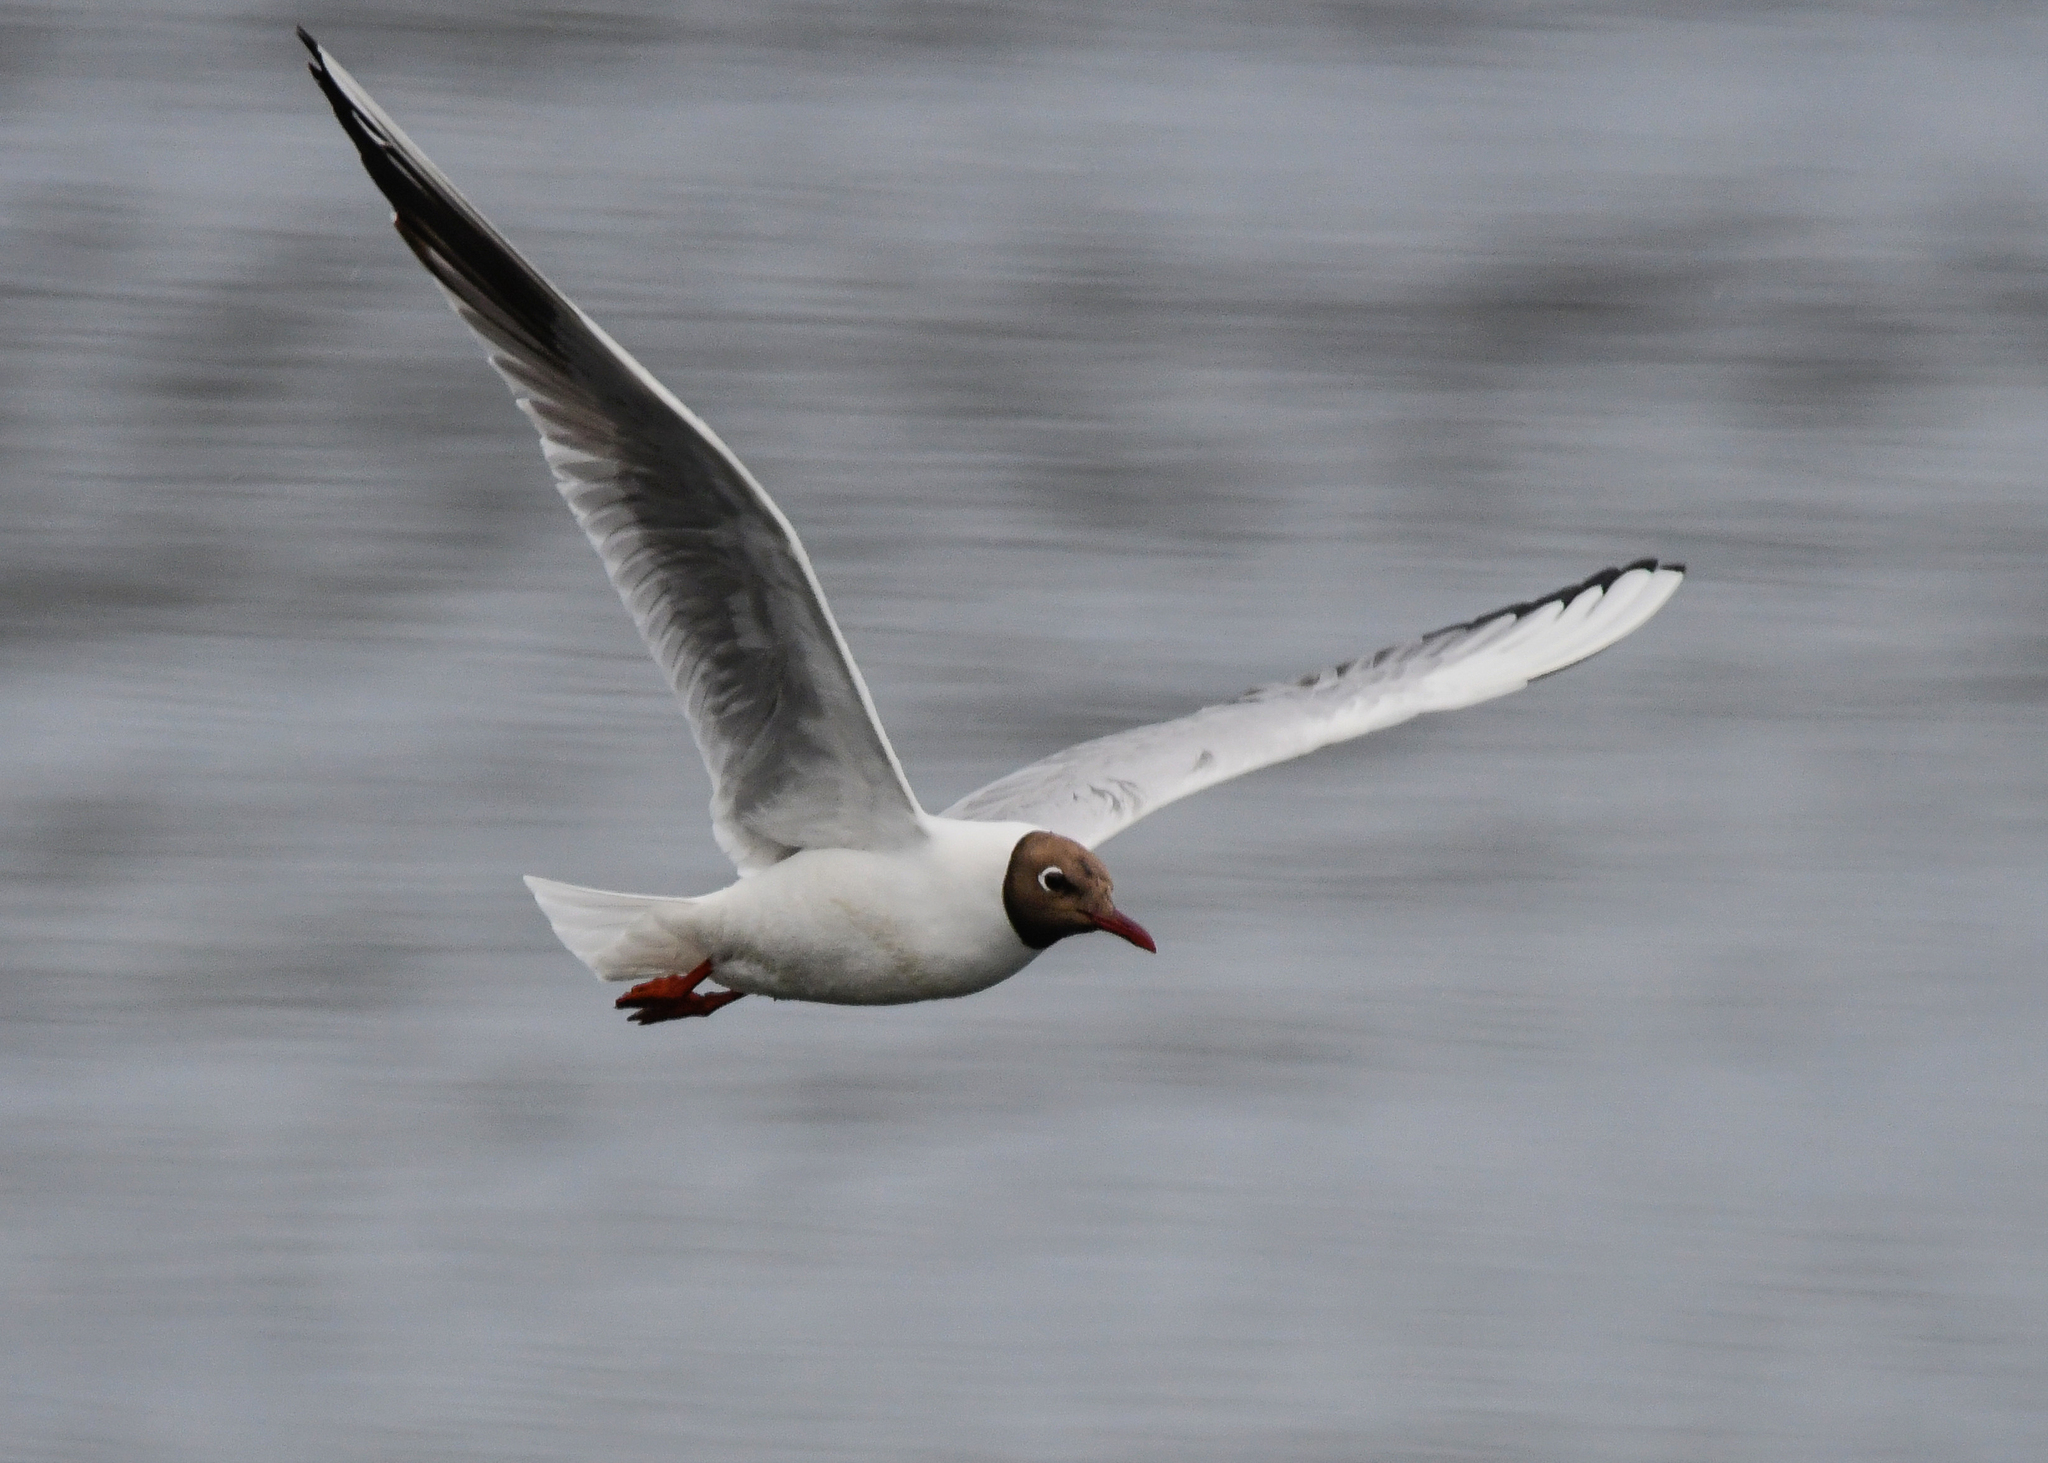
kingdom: Animalia
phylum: Chordata
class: Aves
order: Charadriiformes
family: Laridae
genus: Chroicocephalus
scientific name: Chroicocephalus ridibundus
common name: Black-headed gull
